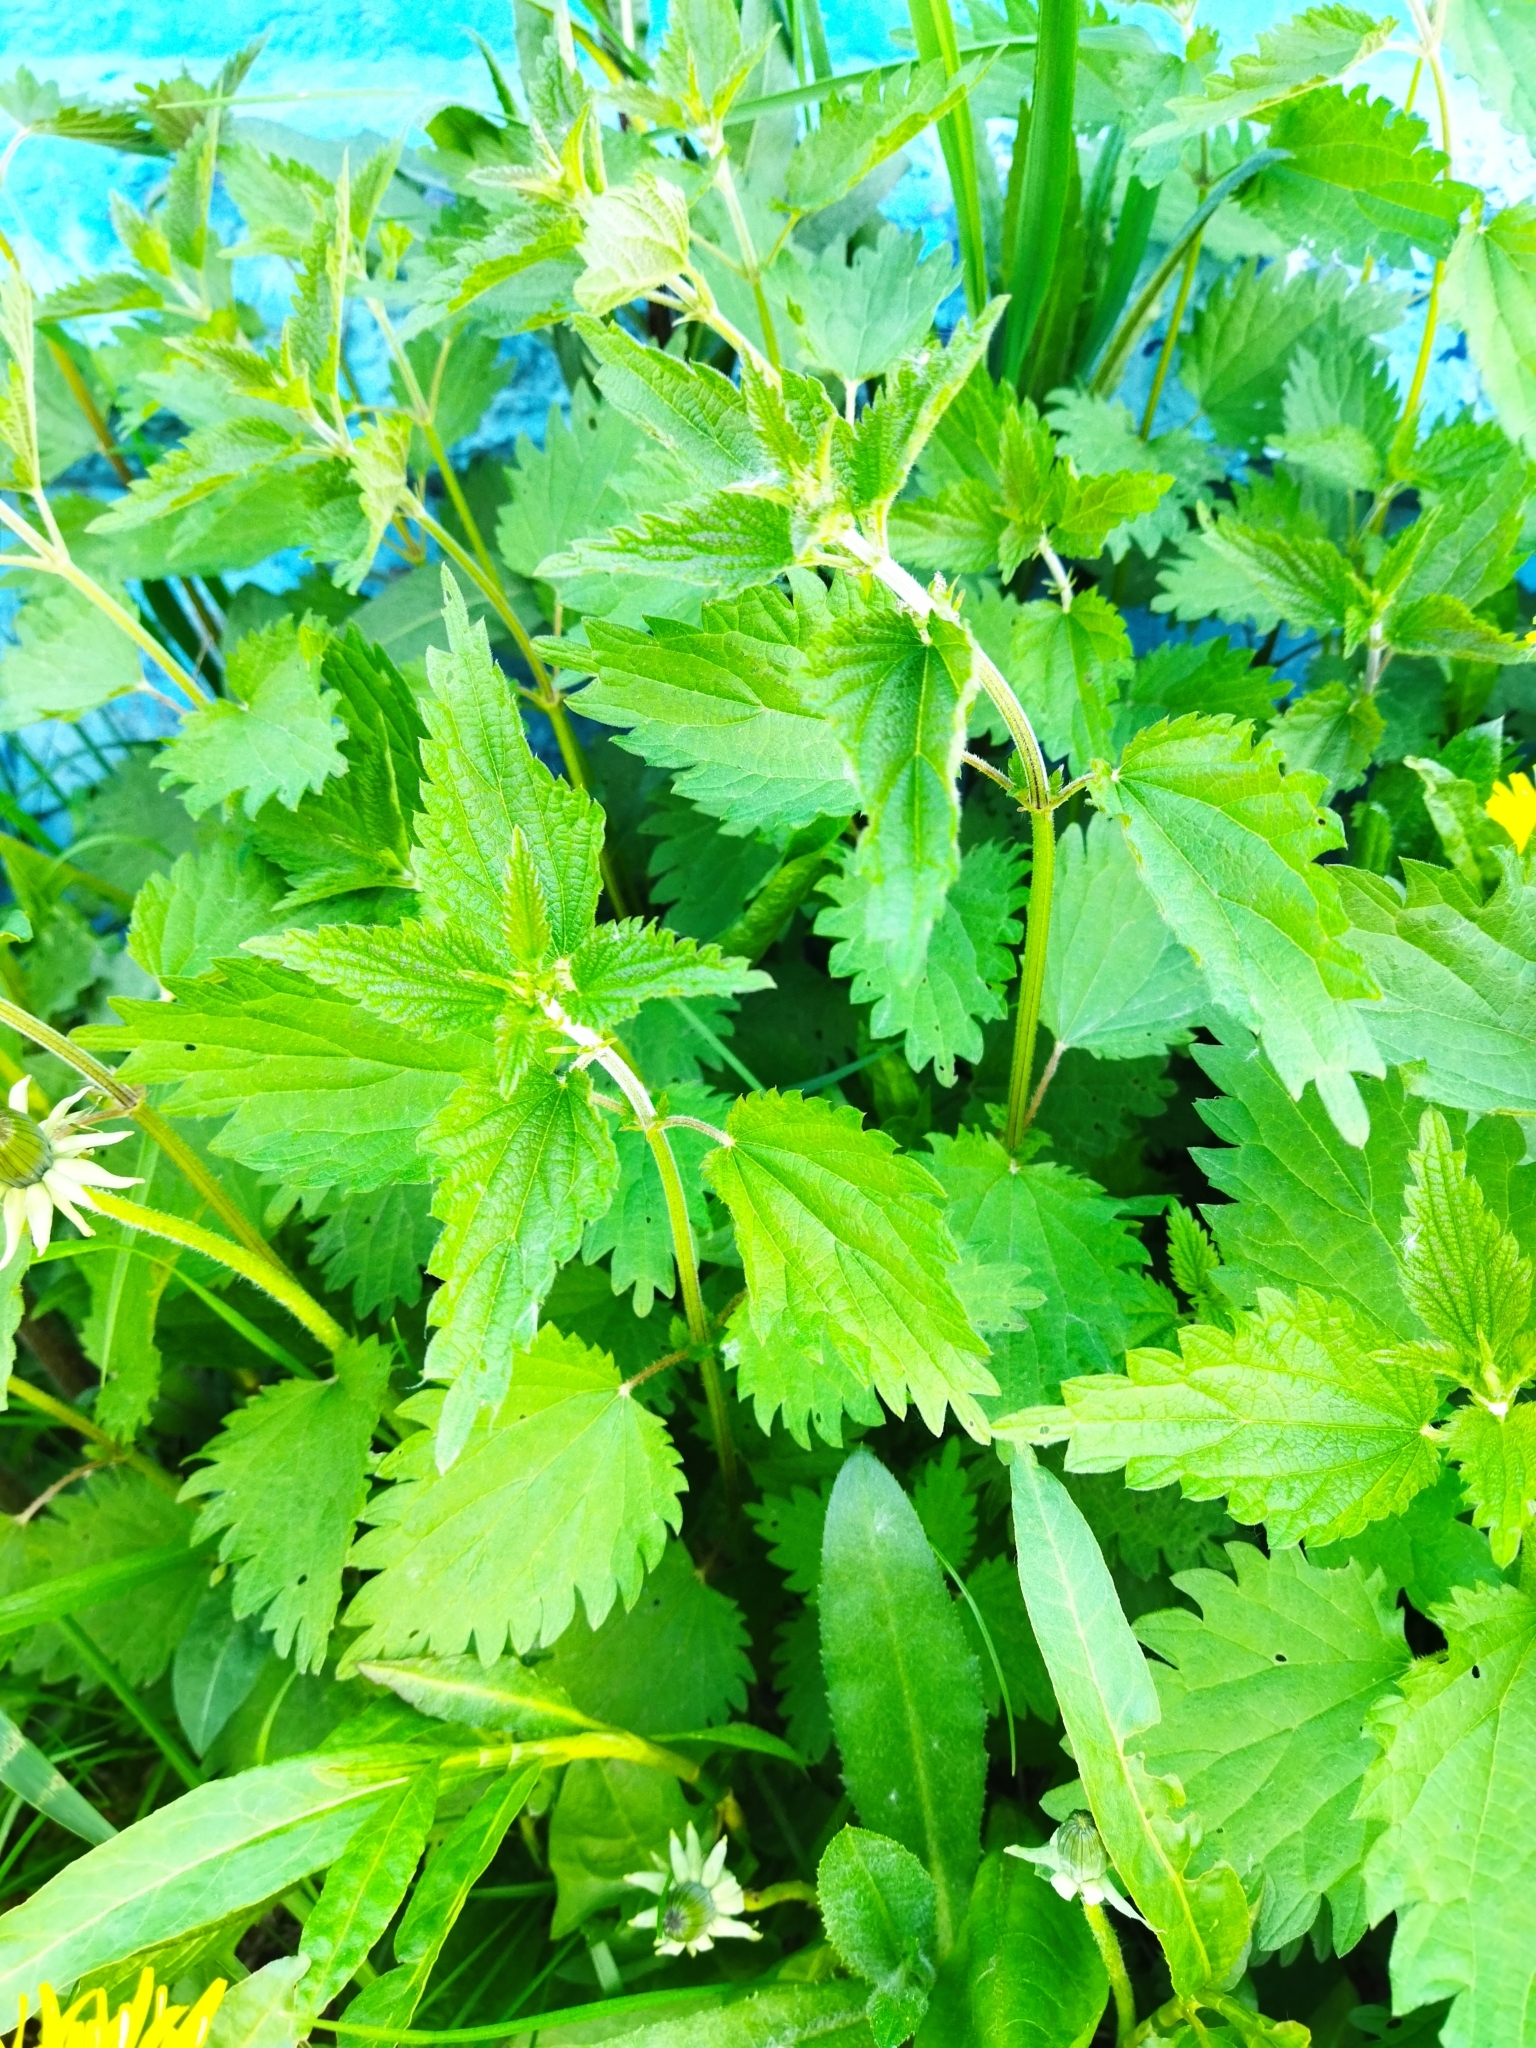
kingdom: Plantae
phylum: Tracheophyta
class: Magnoliopsida
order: Rosales
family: Urticaceae
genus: Urtica
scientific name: Urtica dioica
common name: Common nettle
